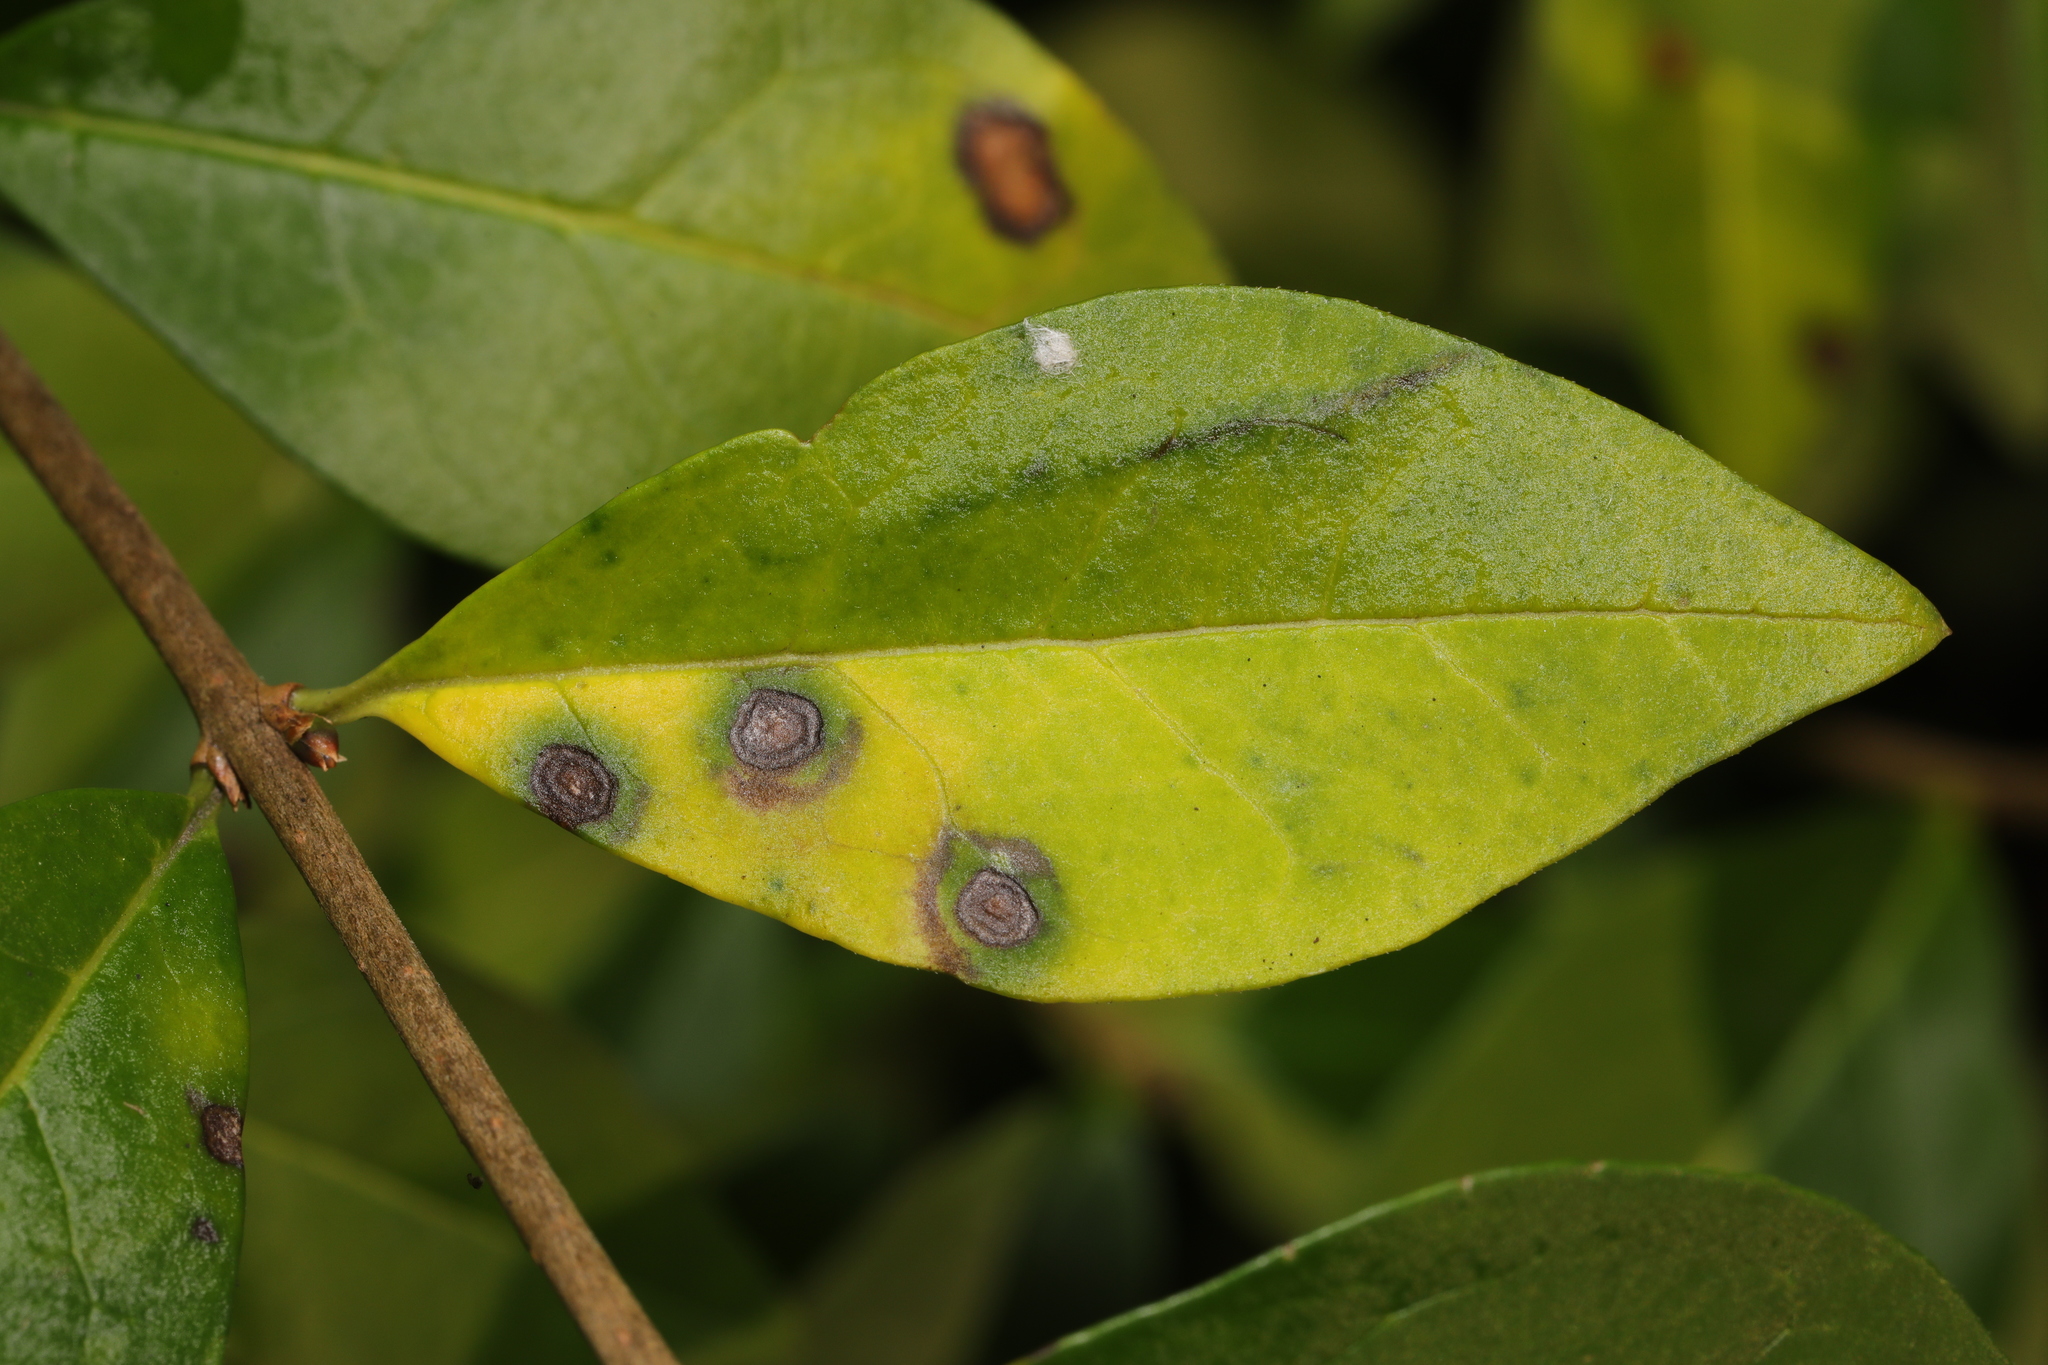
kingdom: Fungi
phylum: Ascomycota
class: Leotiomycetes
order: Helotiales
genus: Thedgonia
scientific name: Thedgonia ligustrina
